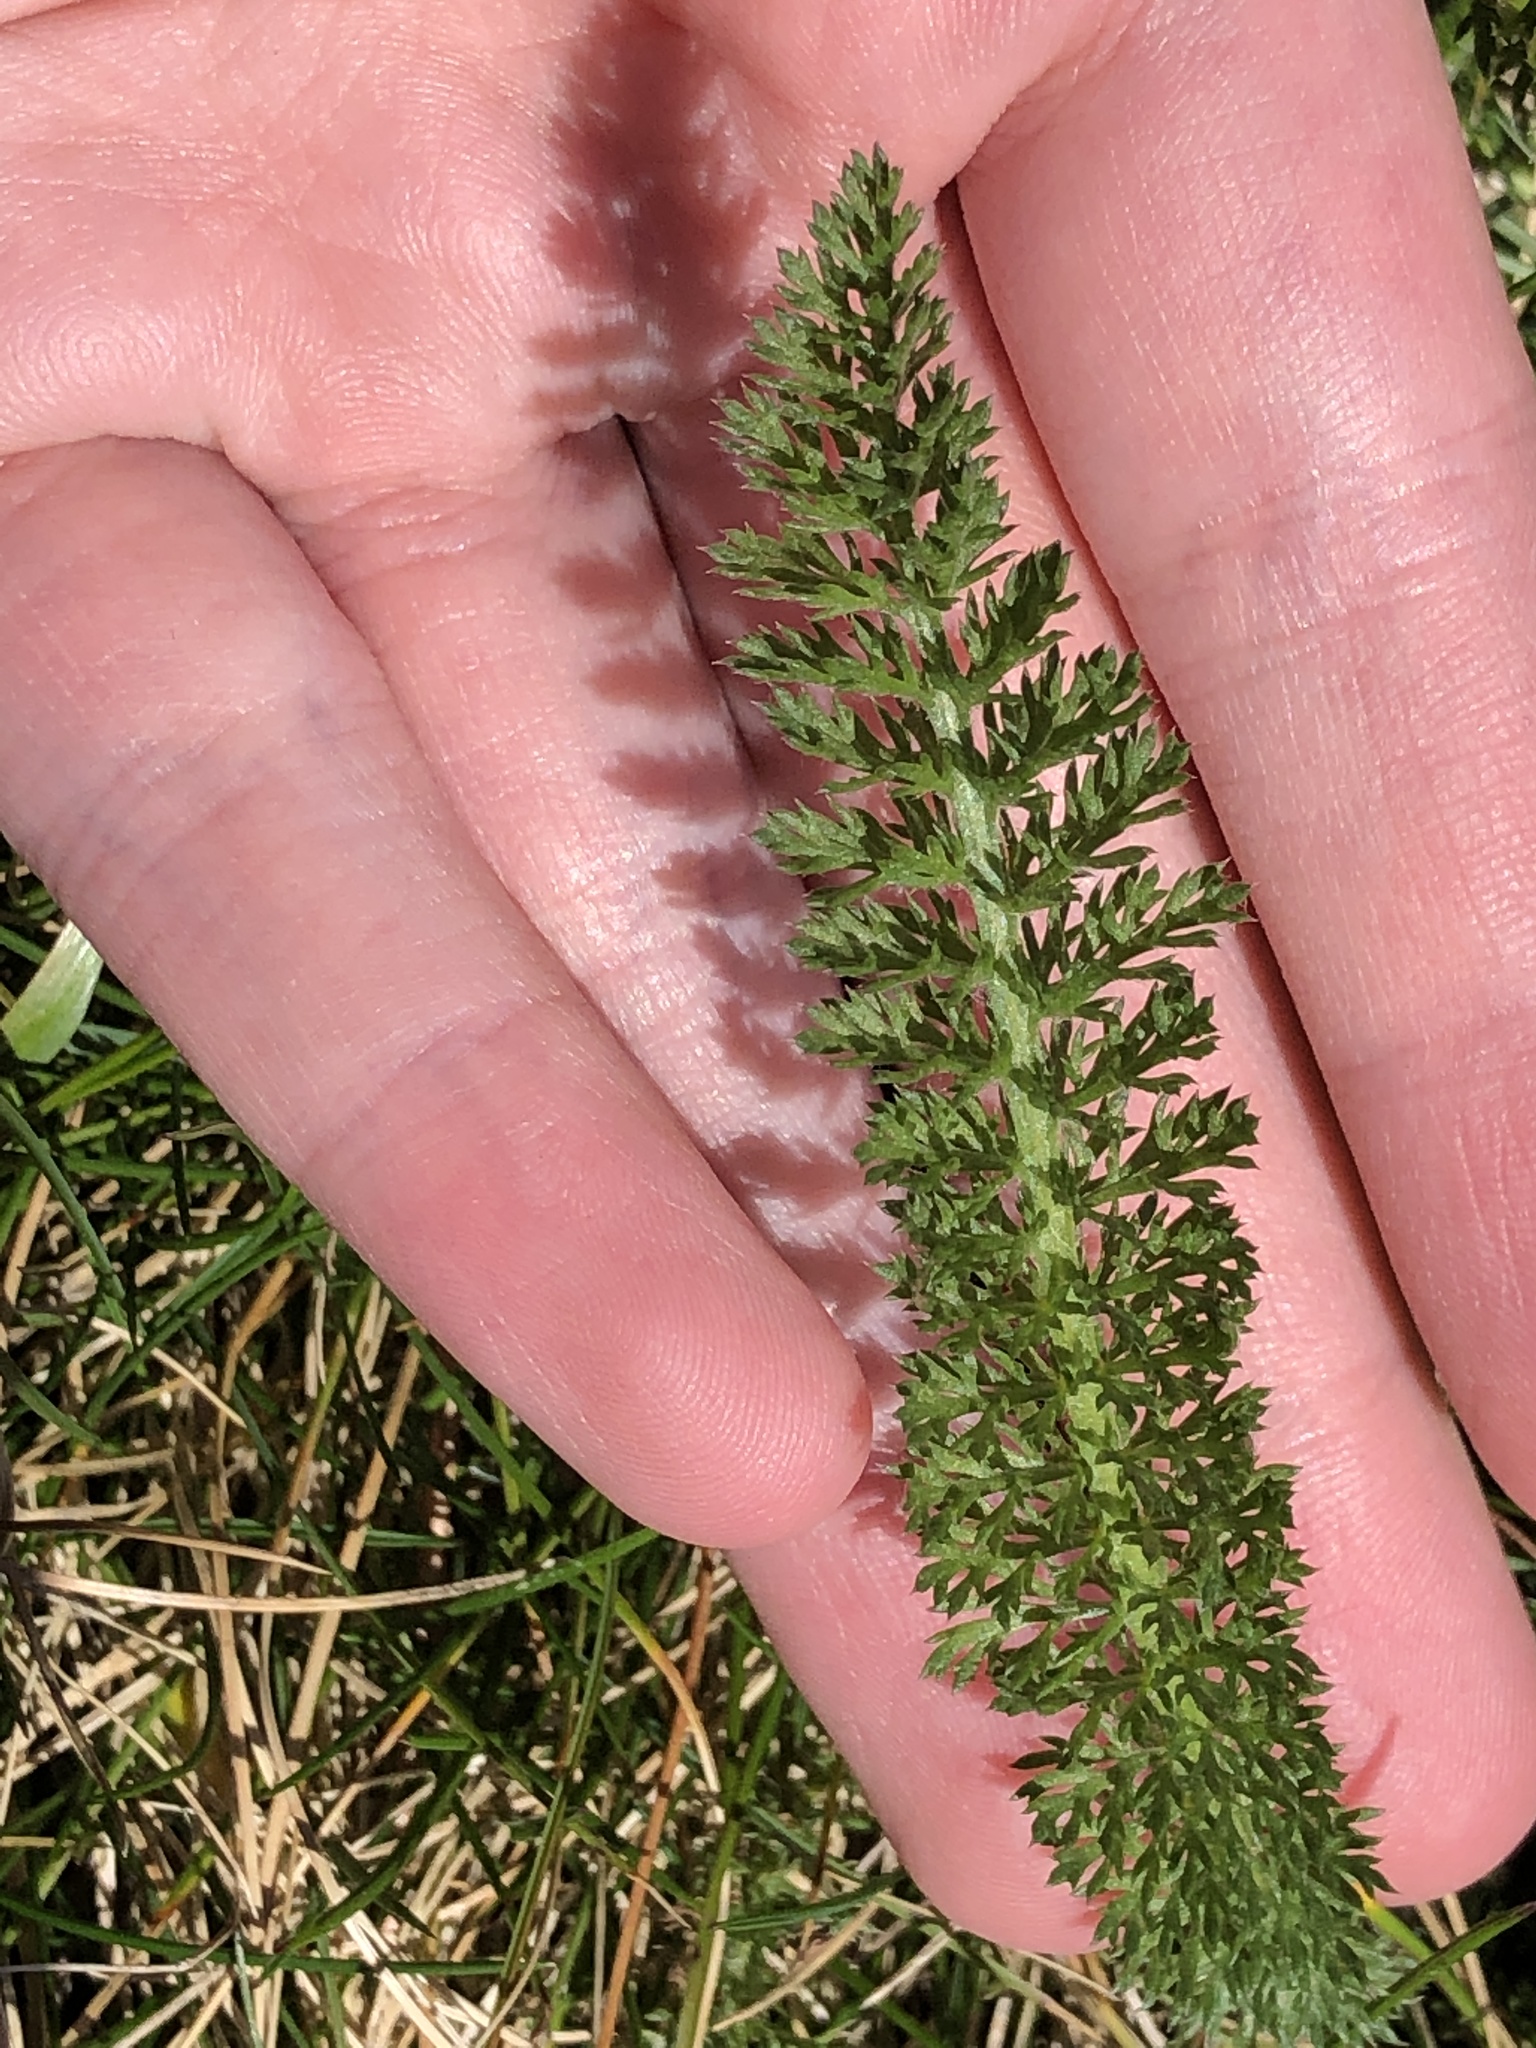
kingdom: Plantae
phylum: Tracheophyta
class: Magnoliopsida
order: Asterales
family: Asteraceae
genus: Achillea
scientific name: Achillea millefolium
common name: Yarrow
